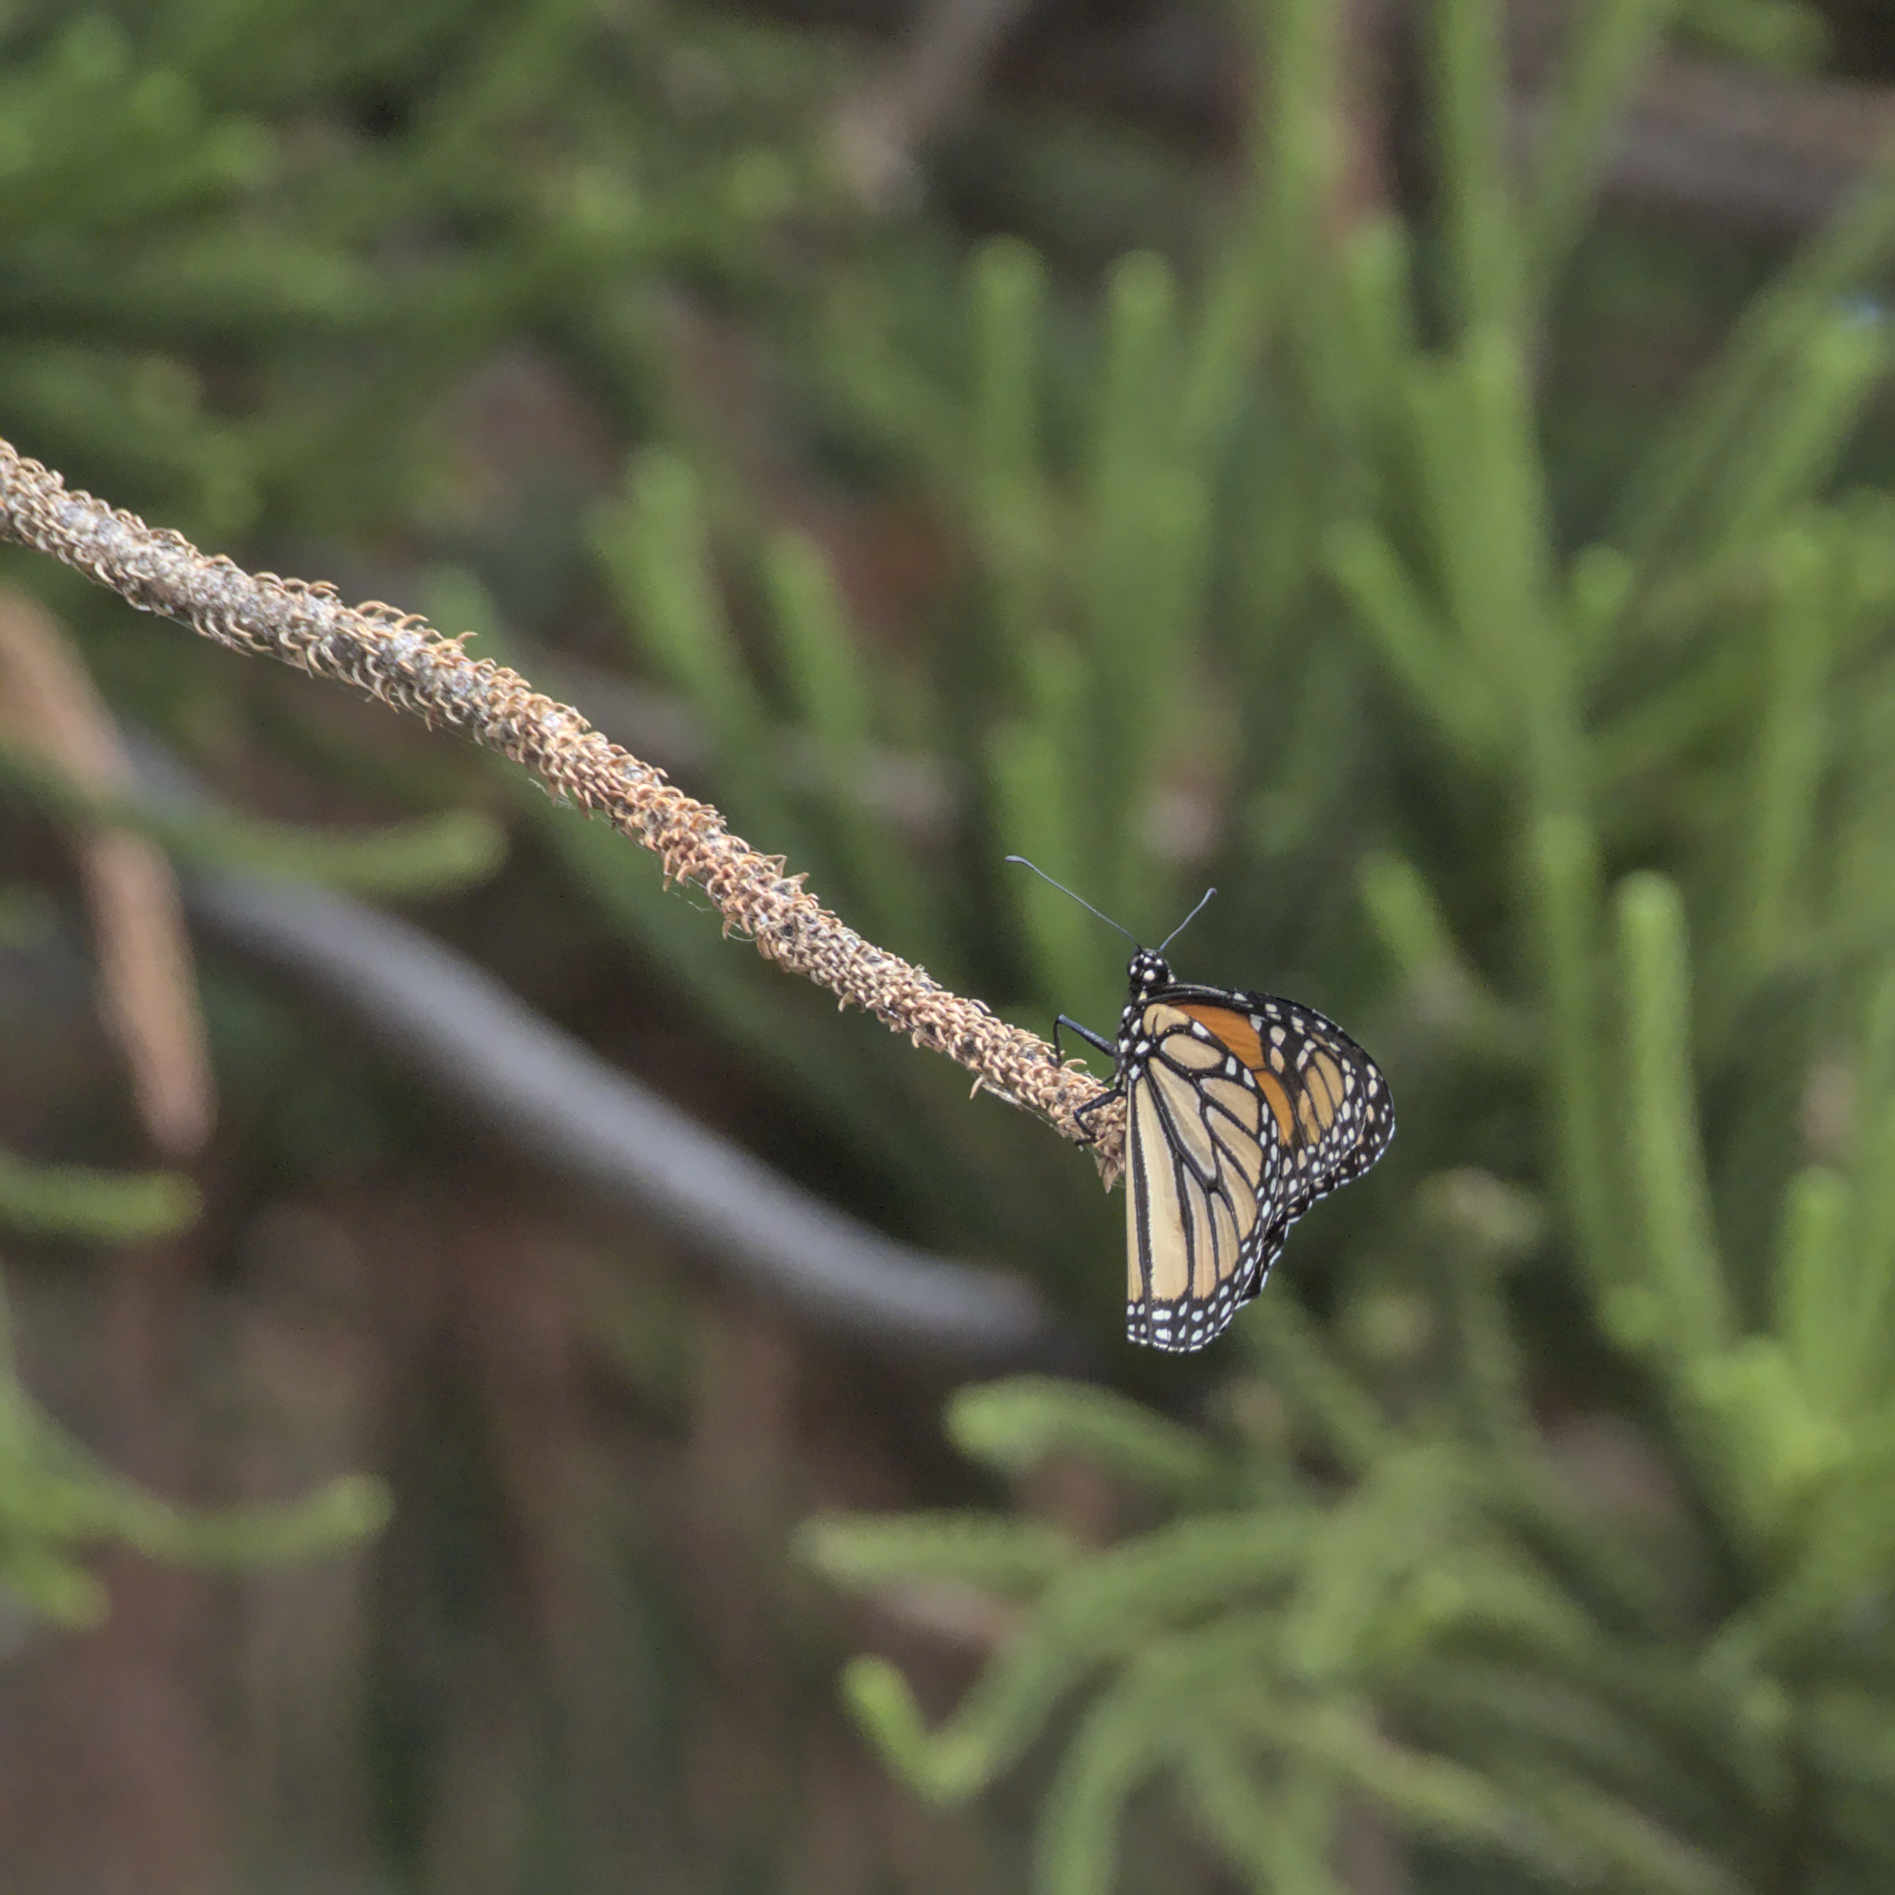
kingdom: Animalia
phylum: Arthropoda
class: Insecta
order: Lepidoptera
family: Nymphalidae
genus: Danaus
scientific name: Danaus plexippus
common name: Monarch
